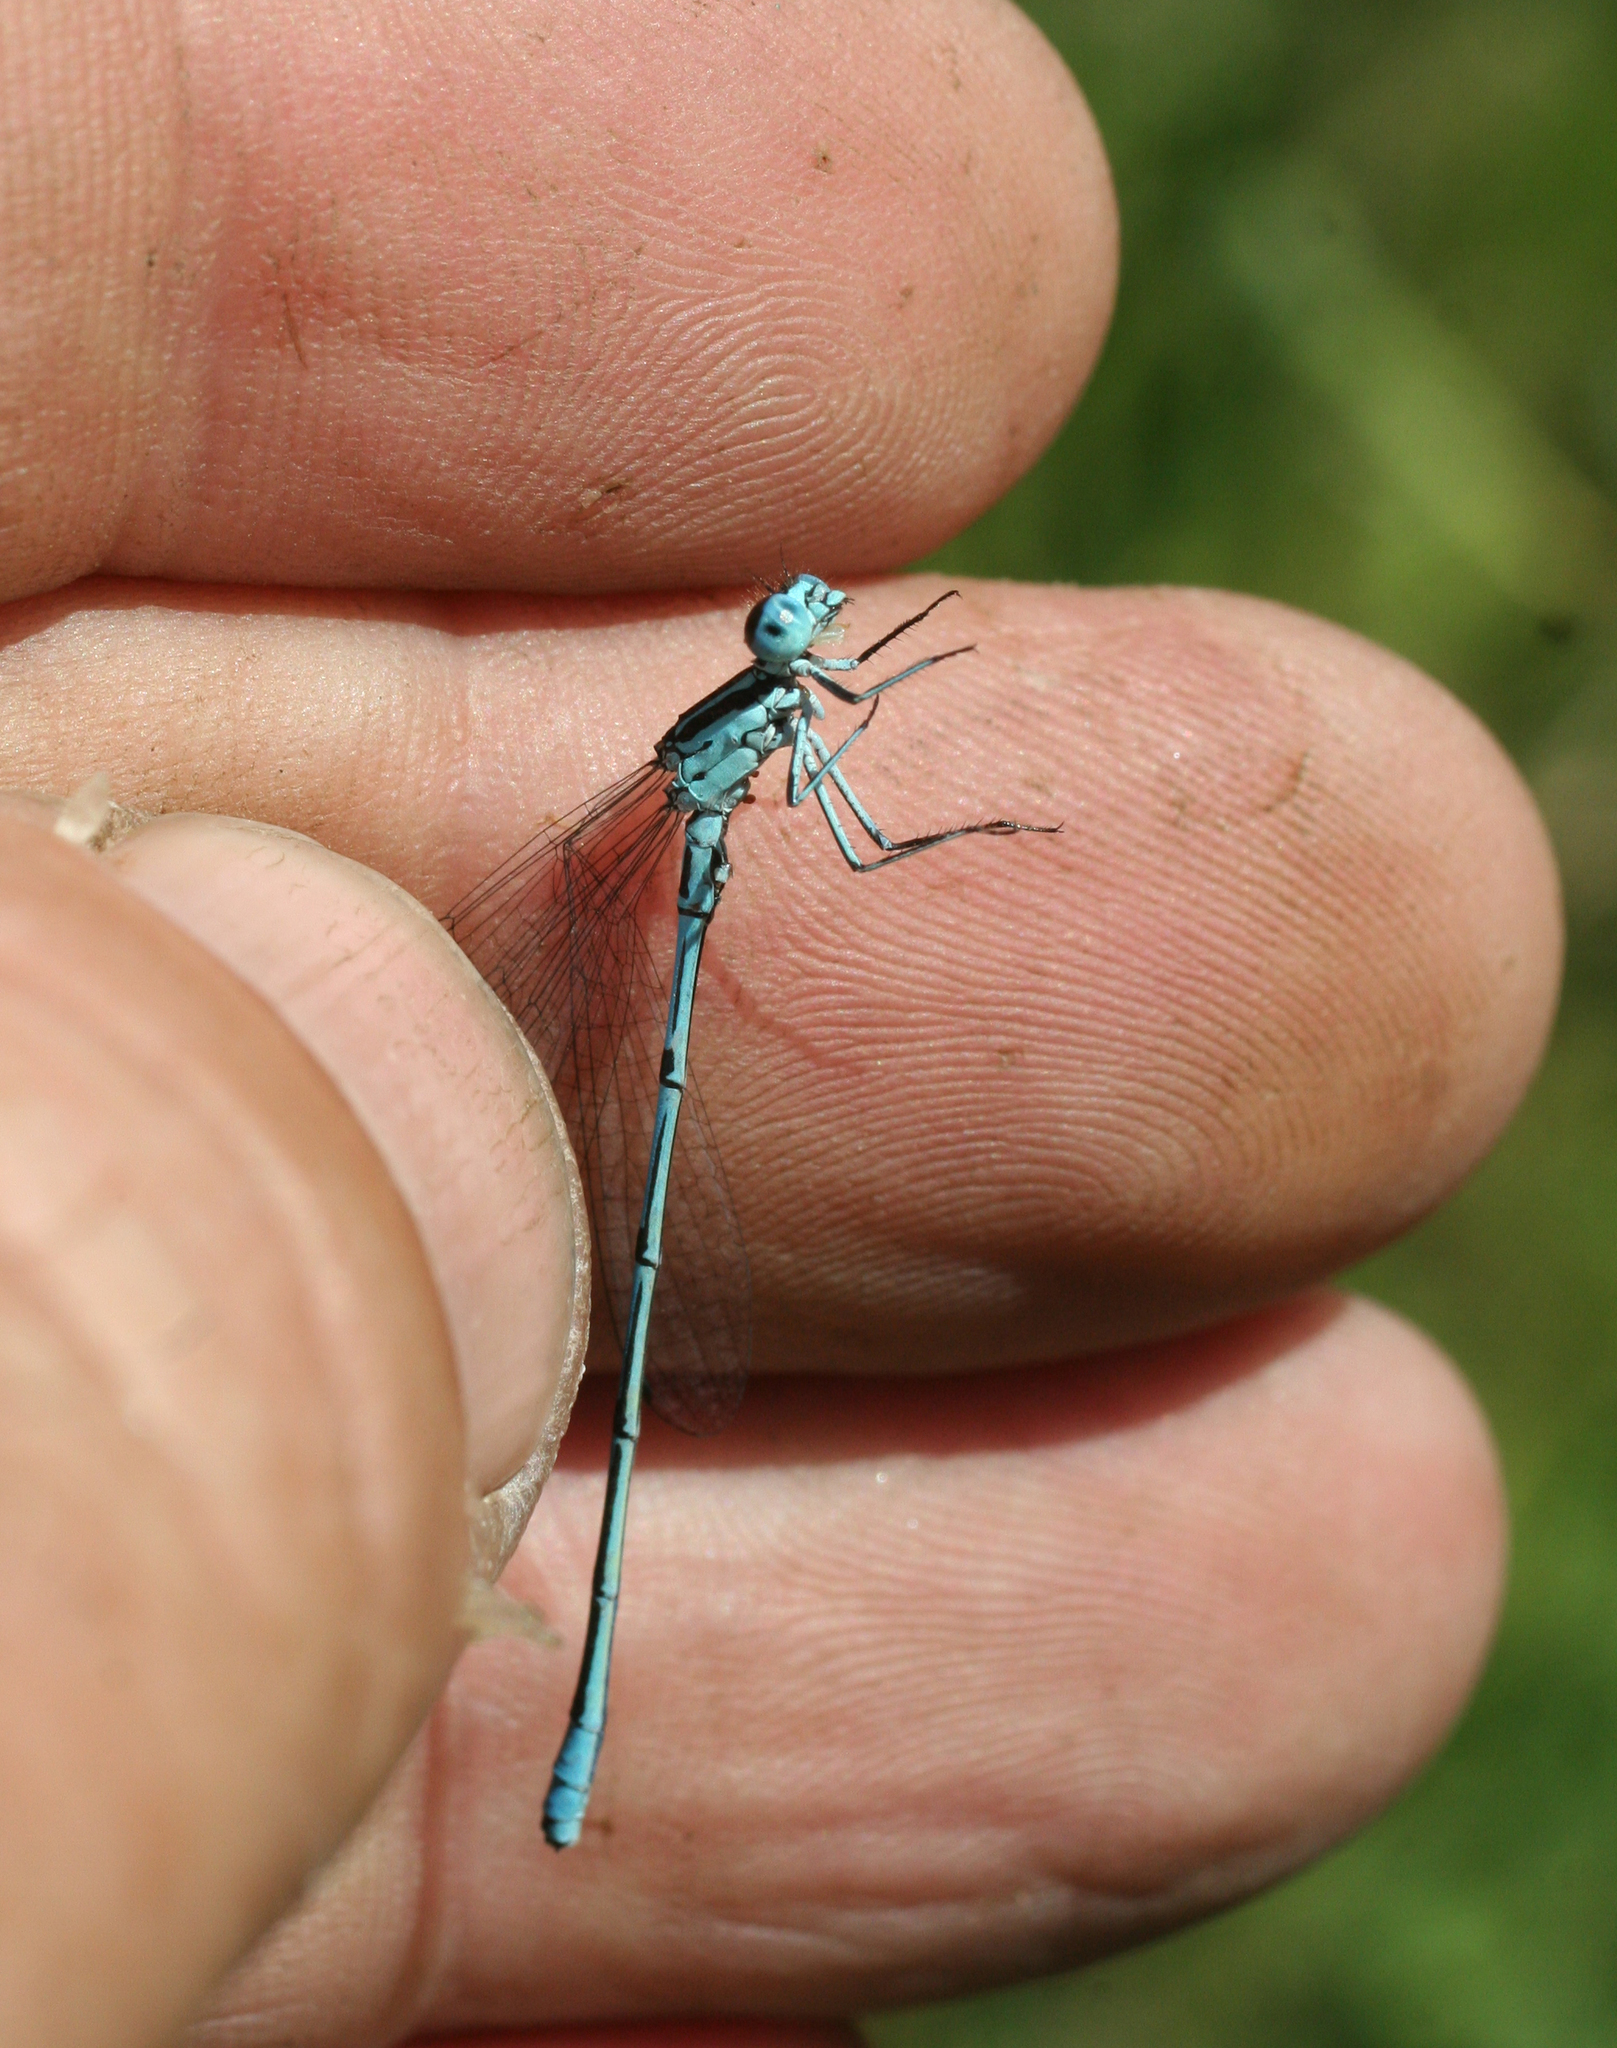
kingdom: Animalia
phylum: Arthropoda
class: Insecta
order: Odonata
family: Coenagrionidae
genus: Coenagrion
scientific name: Coenagrion puella
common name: Azure damselfly
